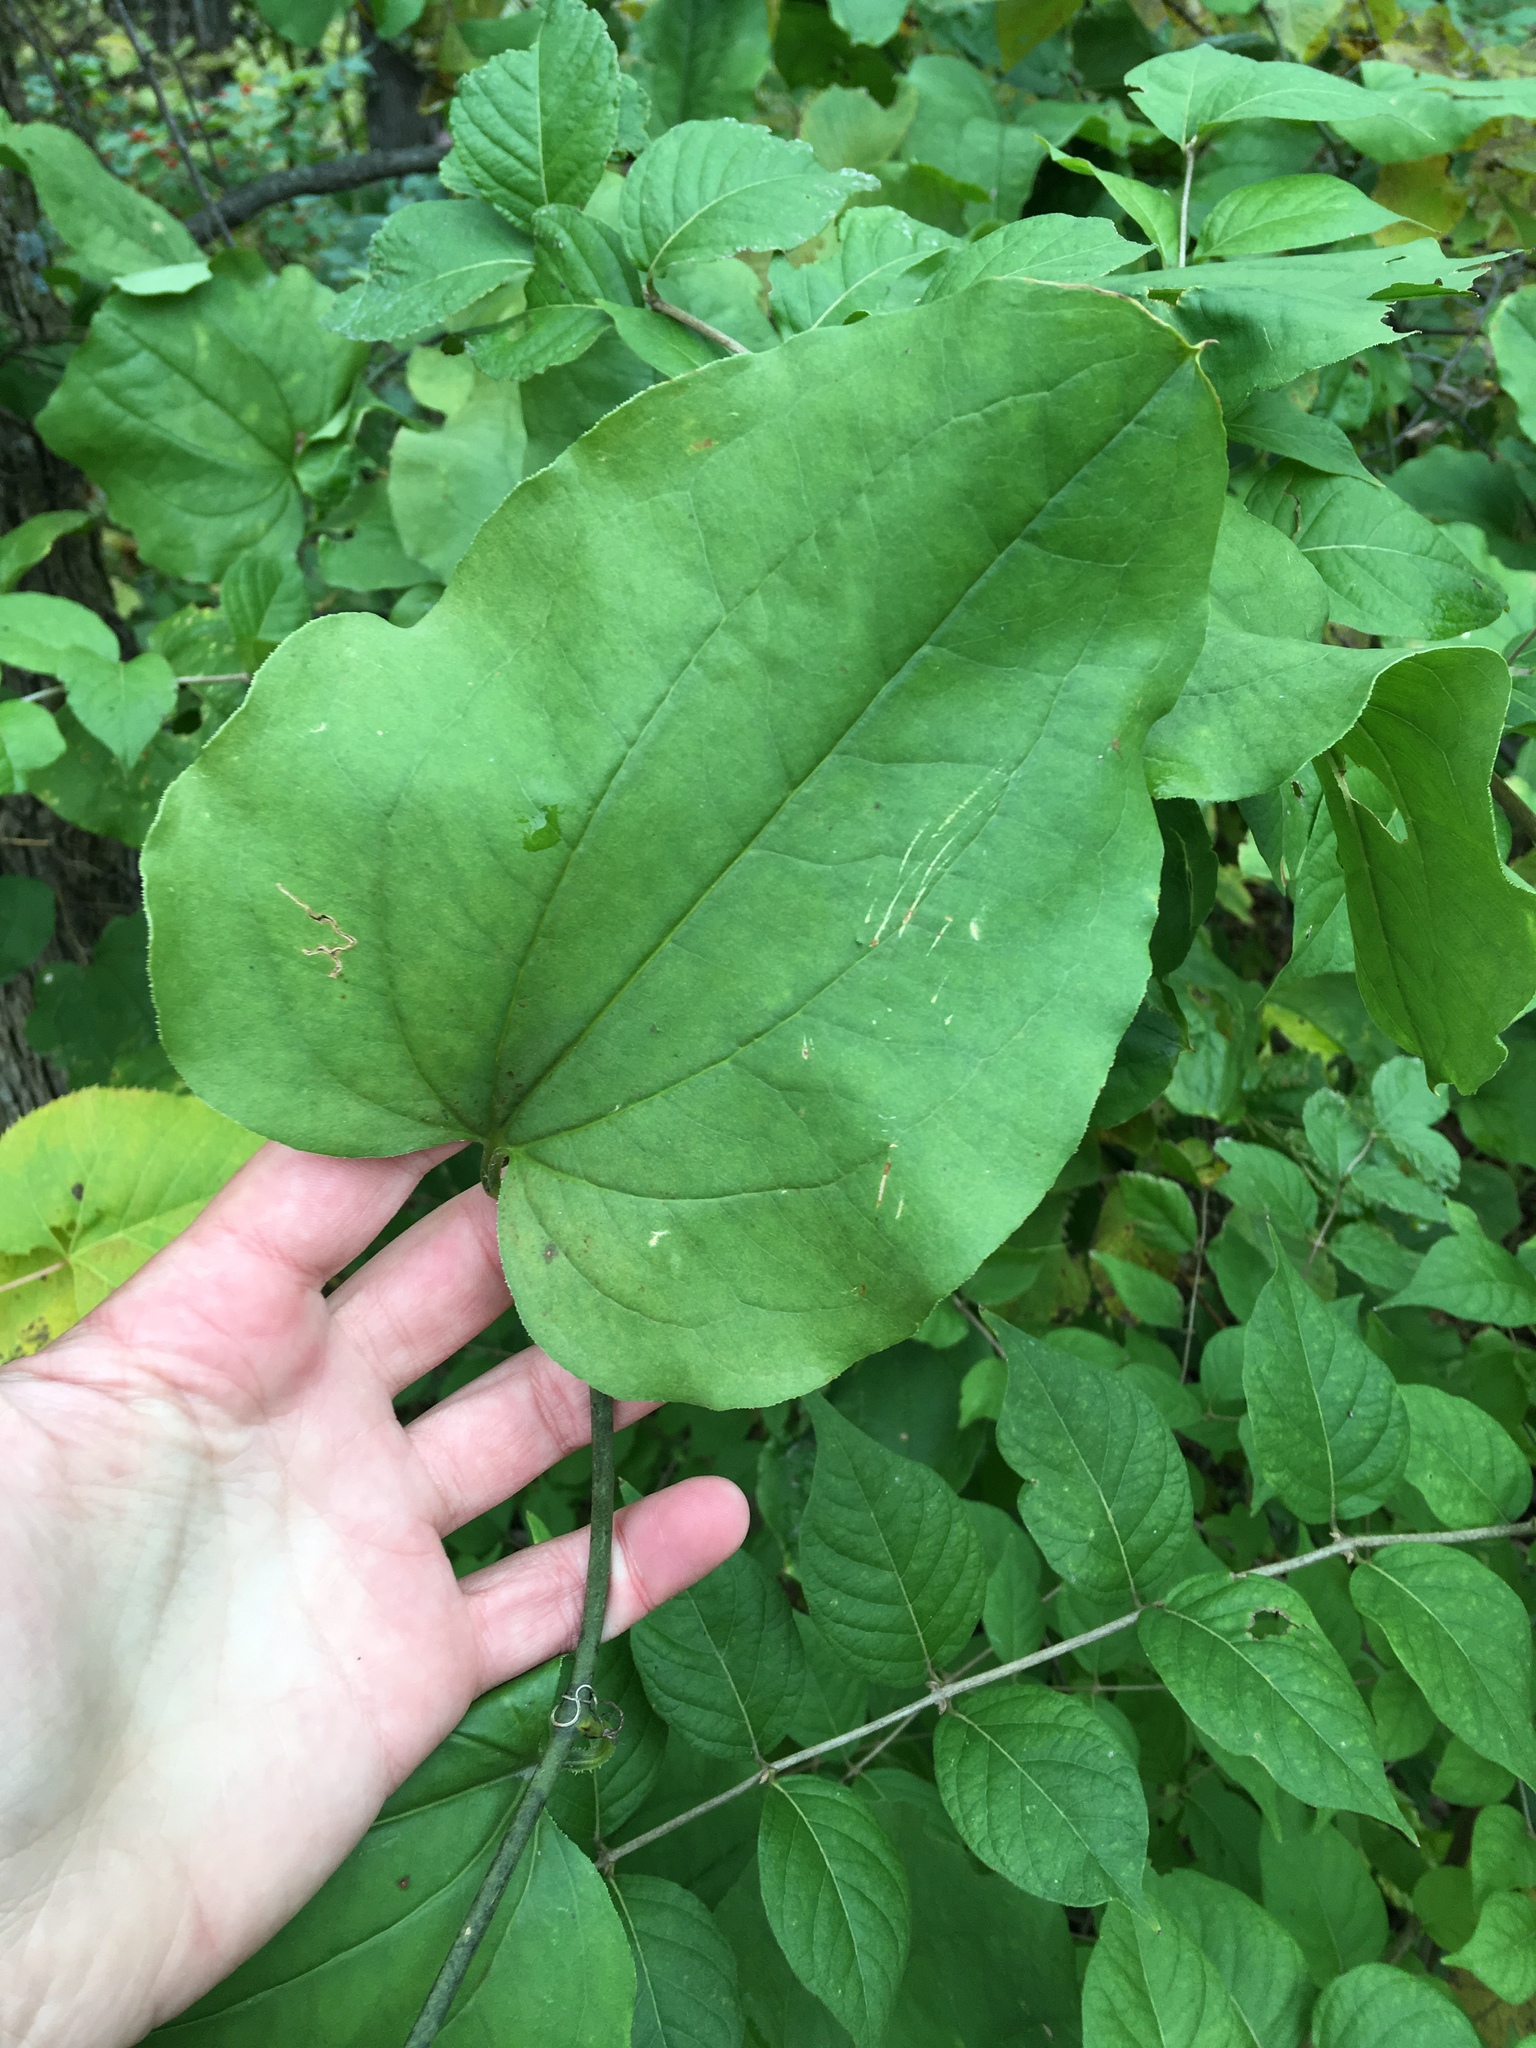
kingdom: Plantae
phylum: Tracheophyta
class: Liliopsida
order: Liliales
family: Smilacaceae
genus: Smilax
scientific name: Smilax tamnoides
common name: Hellfetter
